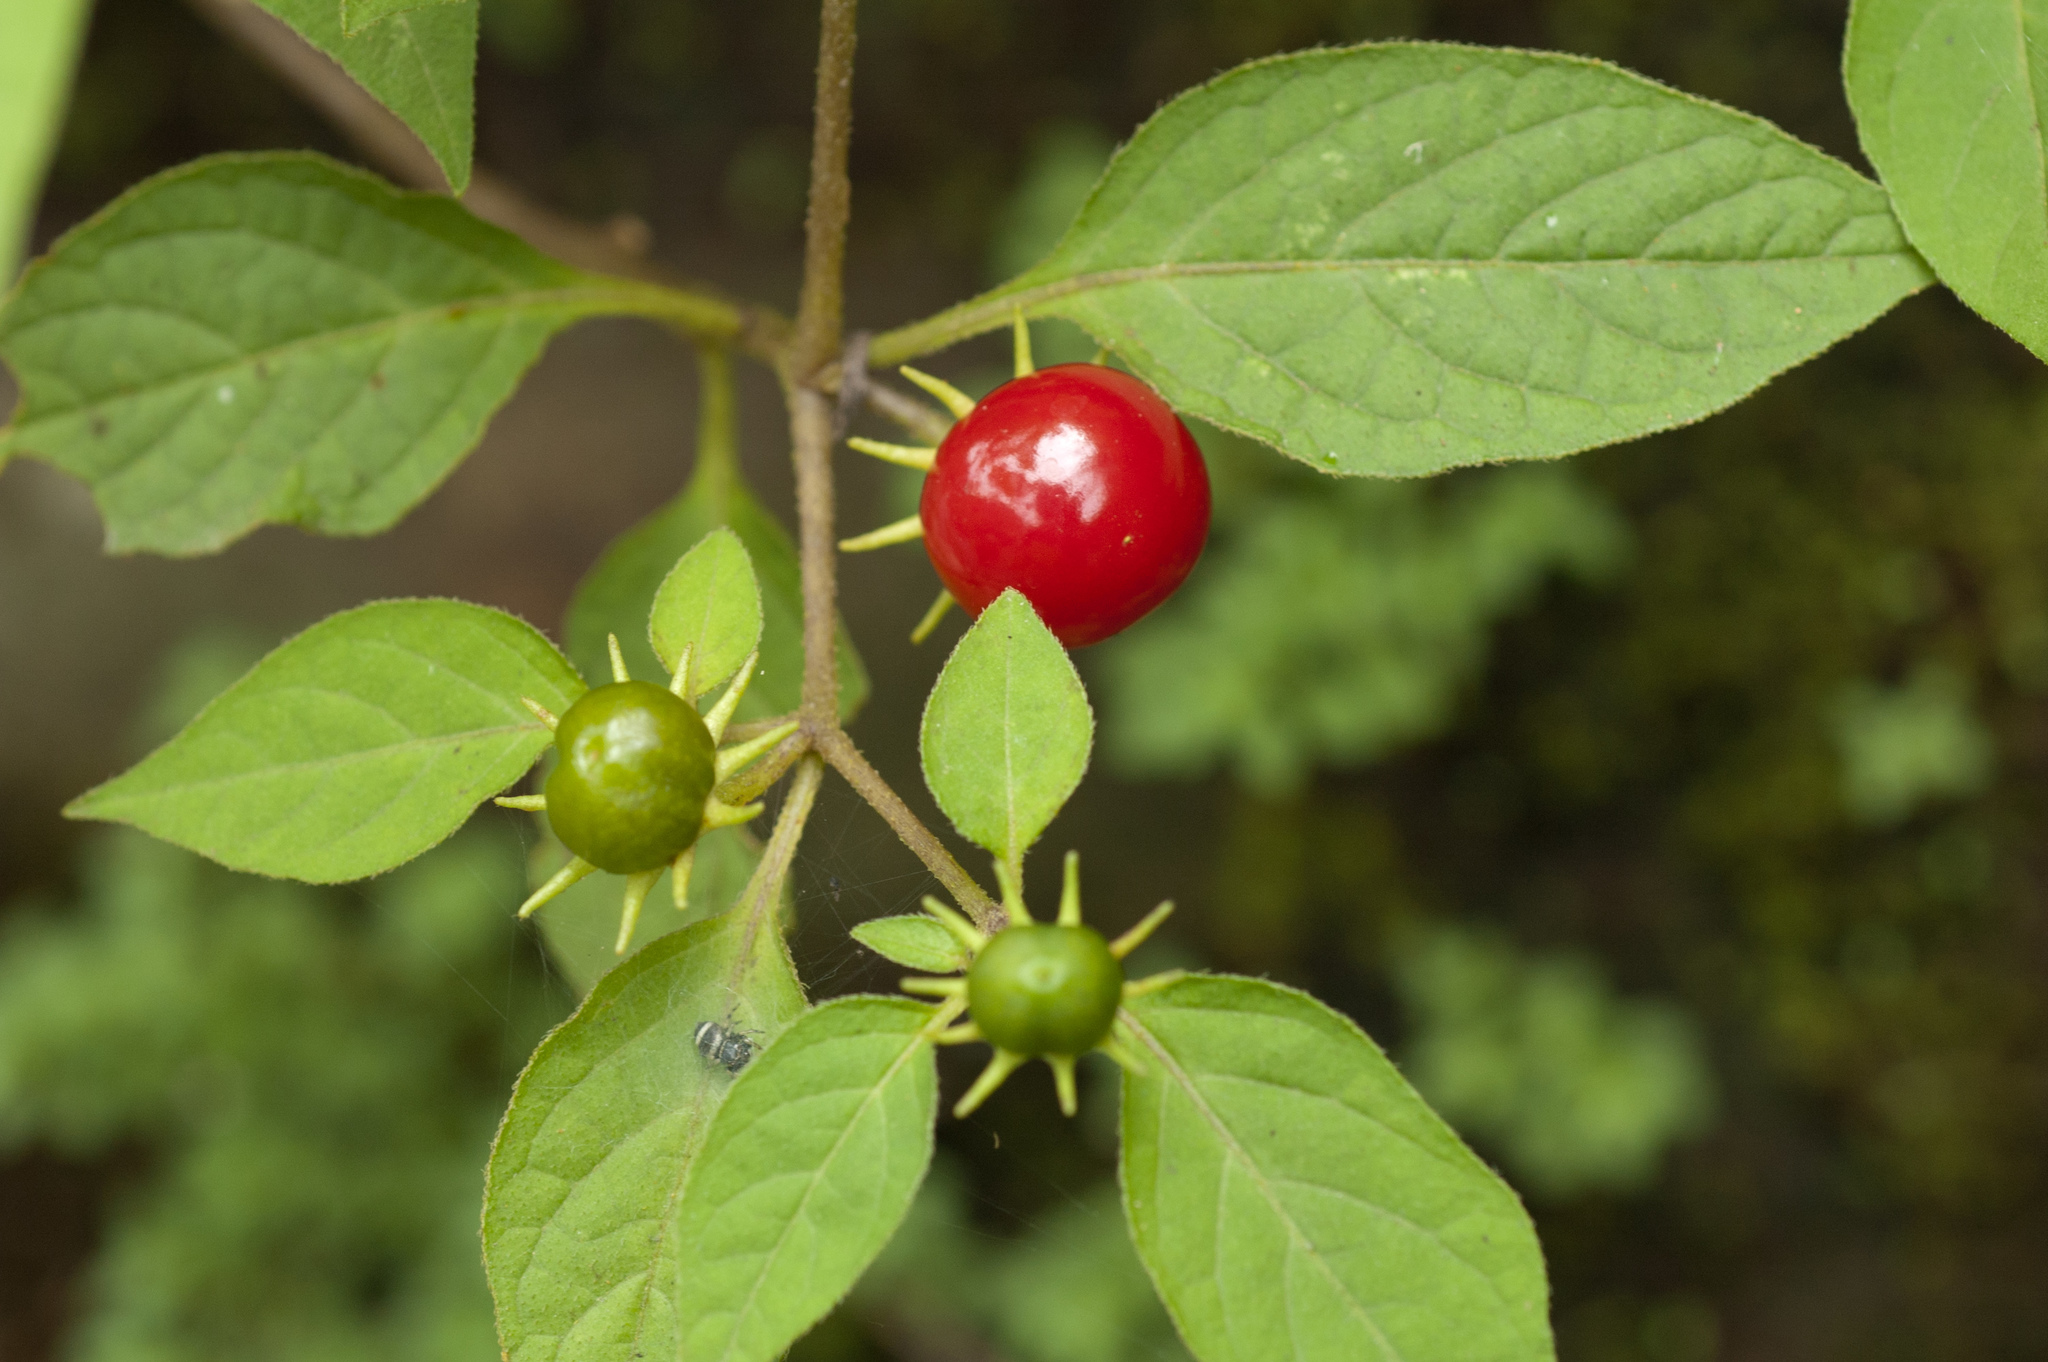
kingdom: Plantae
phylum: Tracheophyta
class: Magnoliopsida
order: Solanales
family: Solanaceae
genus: Lycianthes
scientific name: Lycianthes biflora
